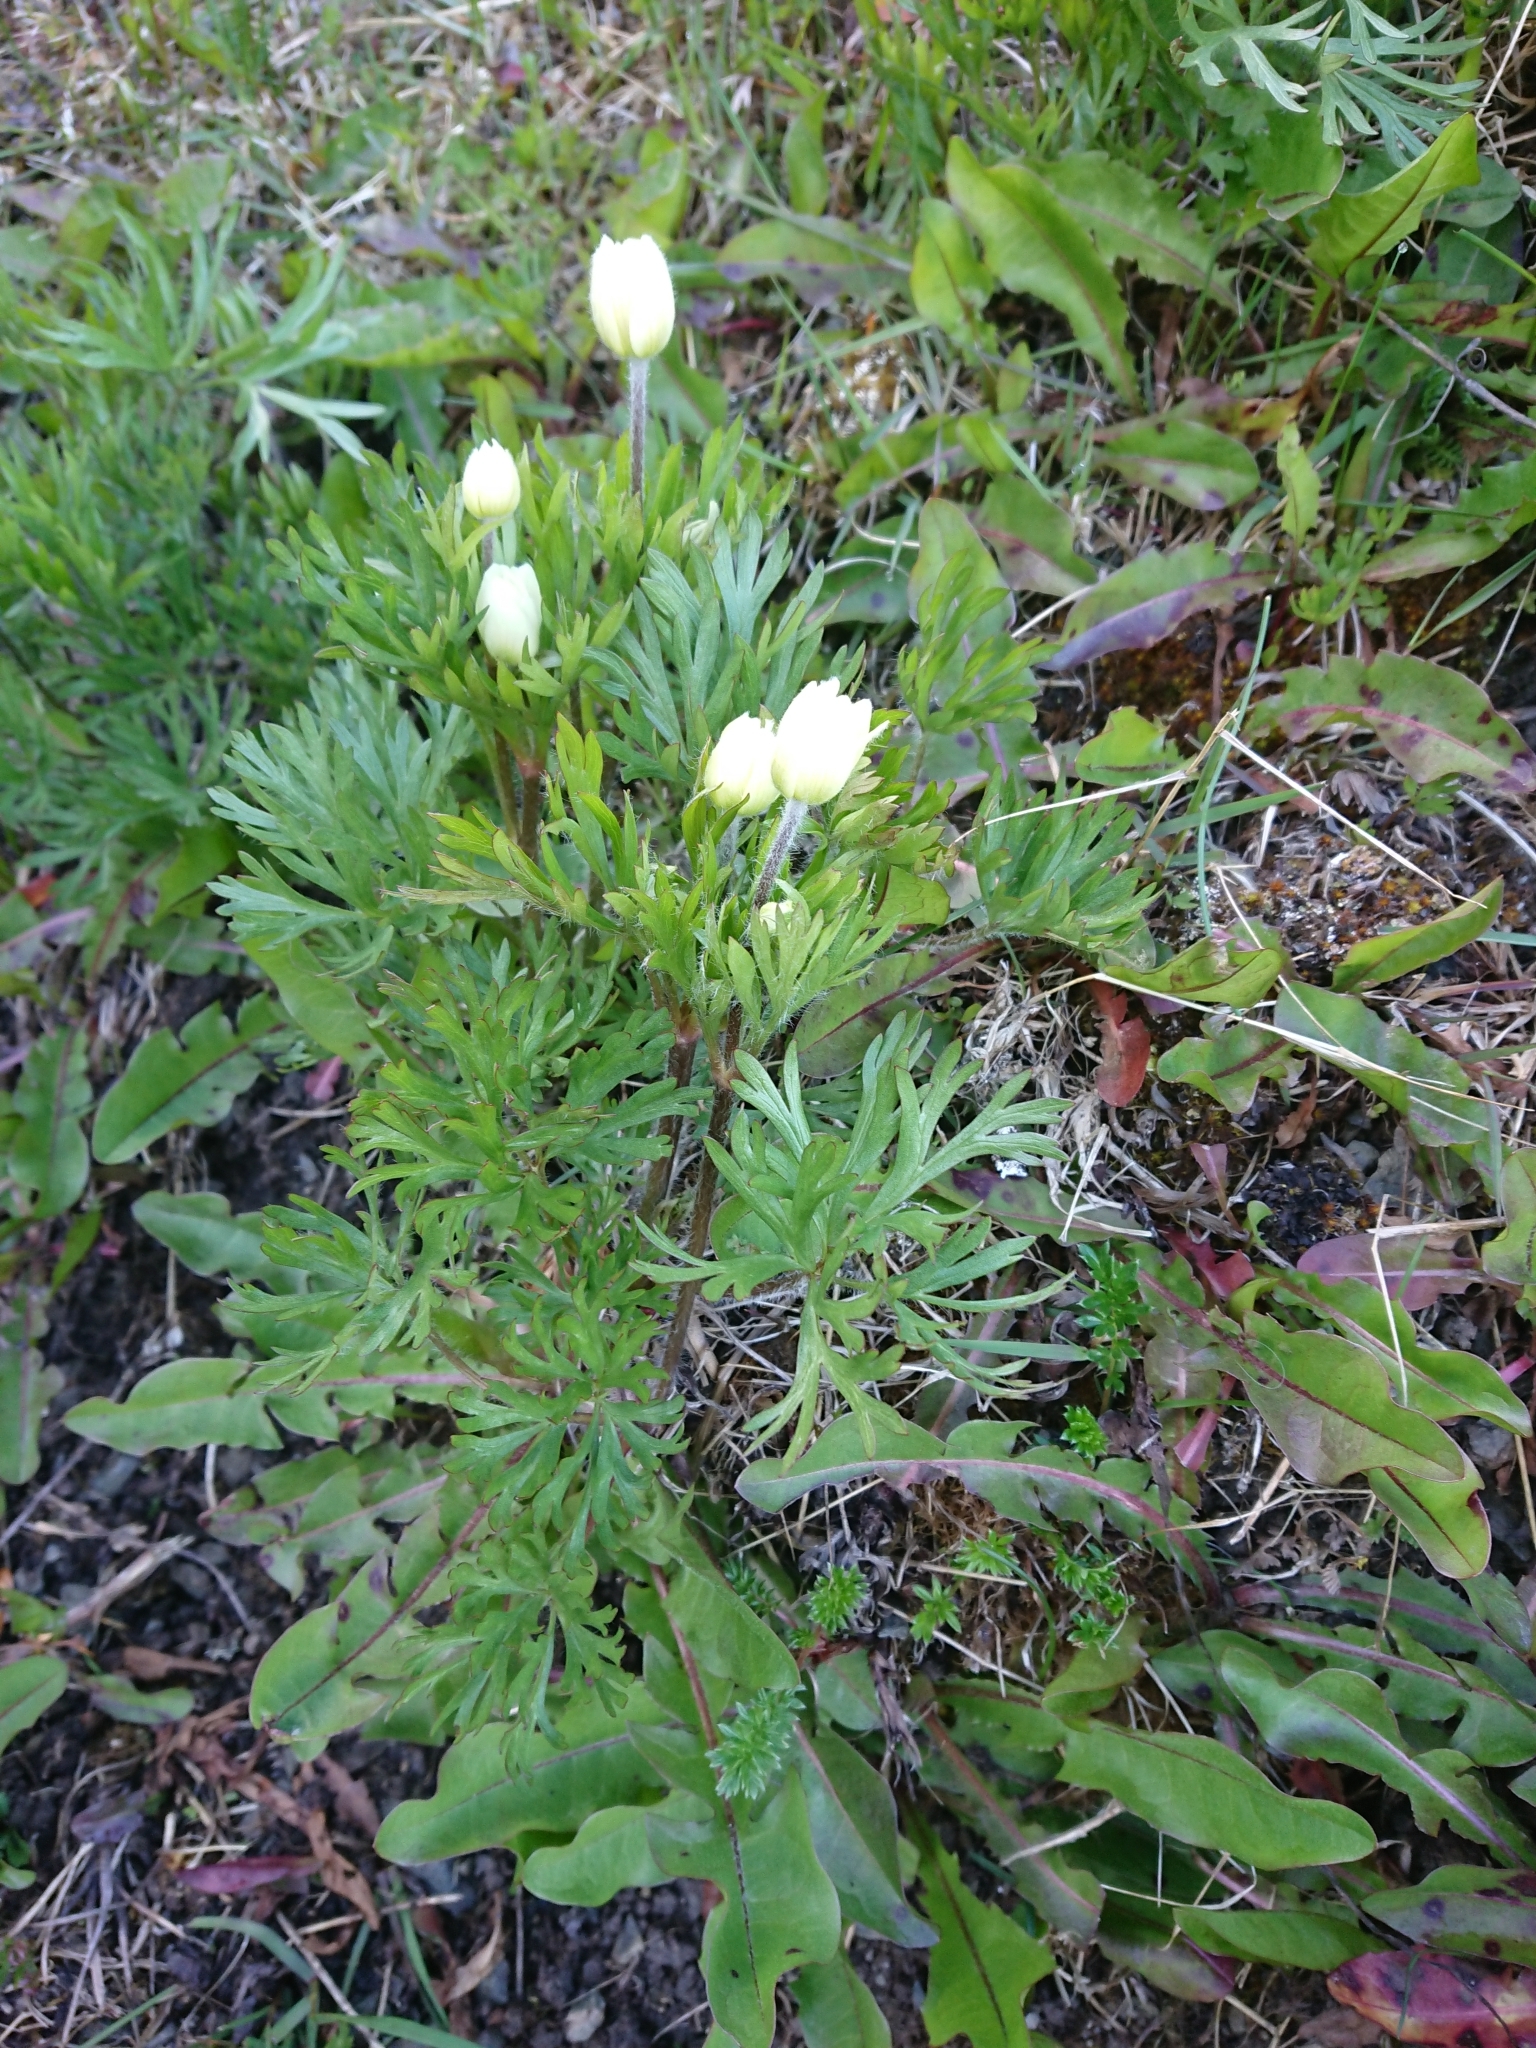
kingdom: Plantae
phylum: Tracheophyta
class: Magnoliopsida
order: Ranunculales
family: Ranunculaceae
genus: Anemone
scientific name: Anemone multifida
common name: Bird's-foot anemone
